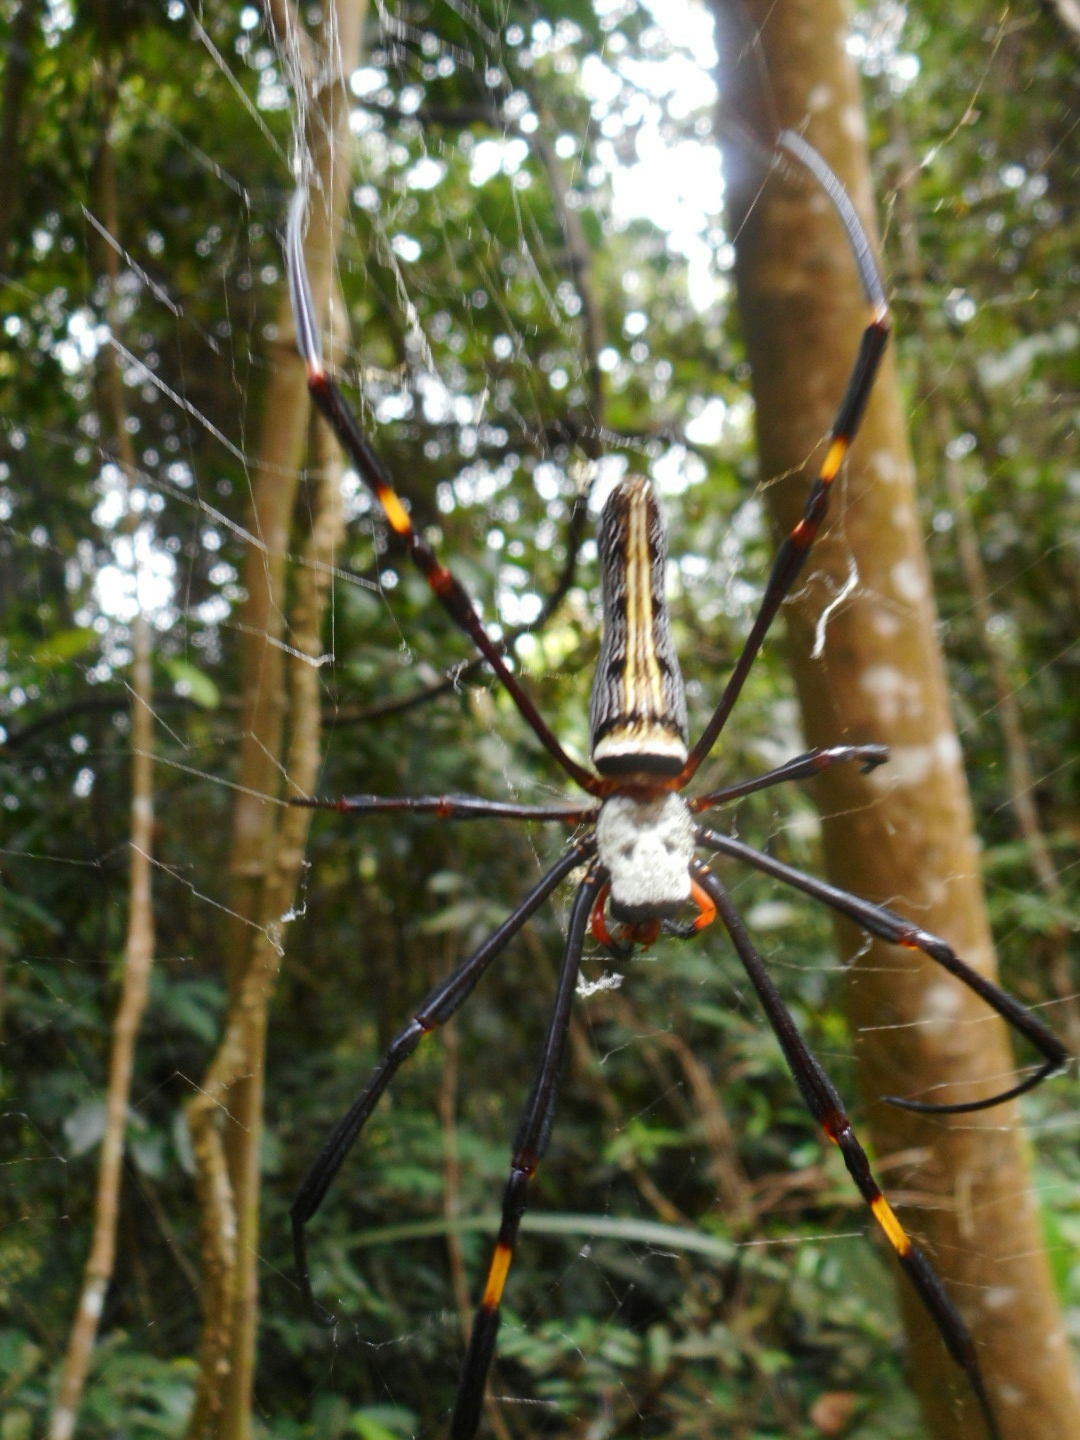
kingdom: Animalia
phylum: Arthropoda
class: Arachnida
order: Araneae
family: Araneidae
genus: Nephila
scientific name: Nephila pilipes
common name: Giant golden orb weaver
